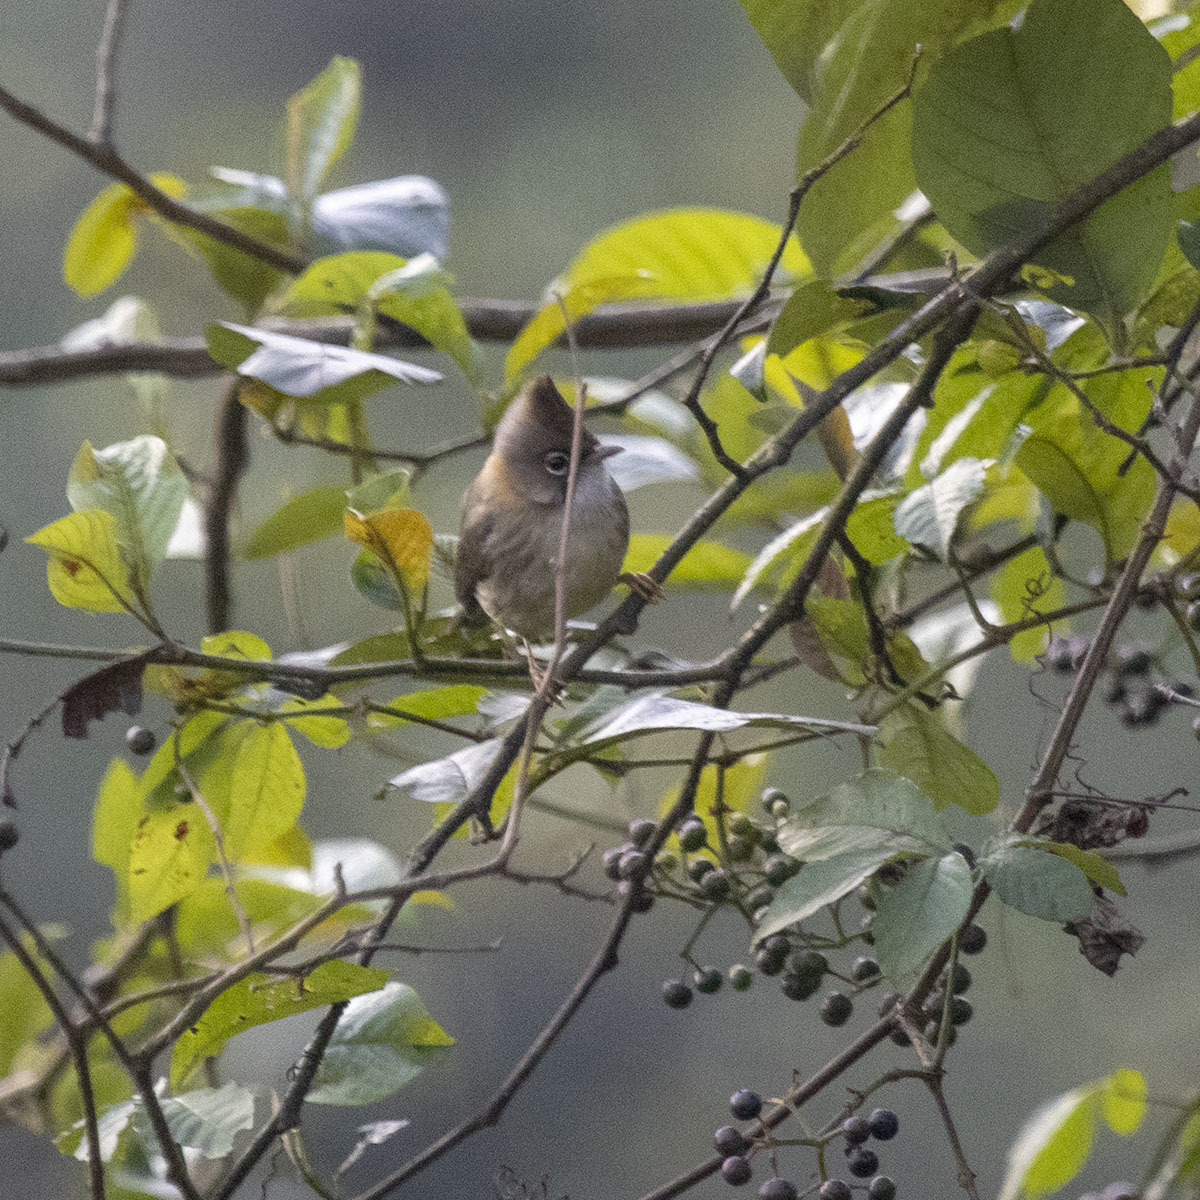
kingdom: Animalia
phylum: Chordata
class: Aves
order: Passeriformes
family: Zosteropidae
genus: Yuhina
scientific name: Yuhina flavicollis
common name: Whiskered yuhina
